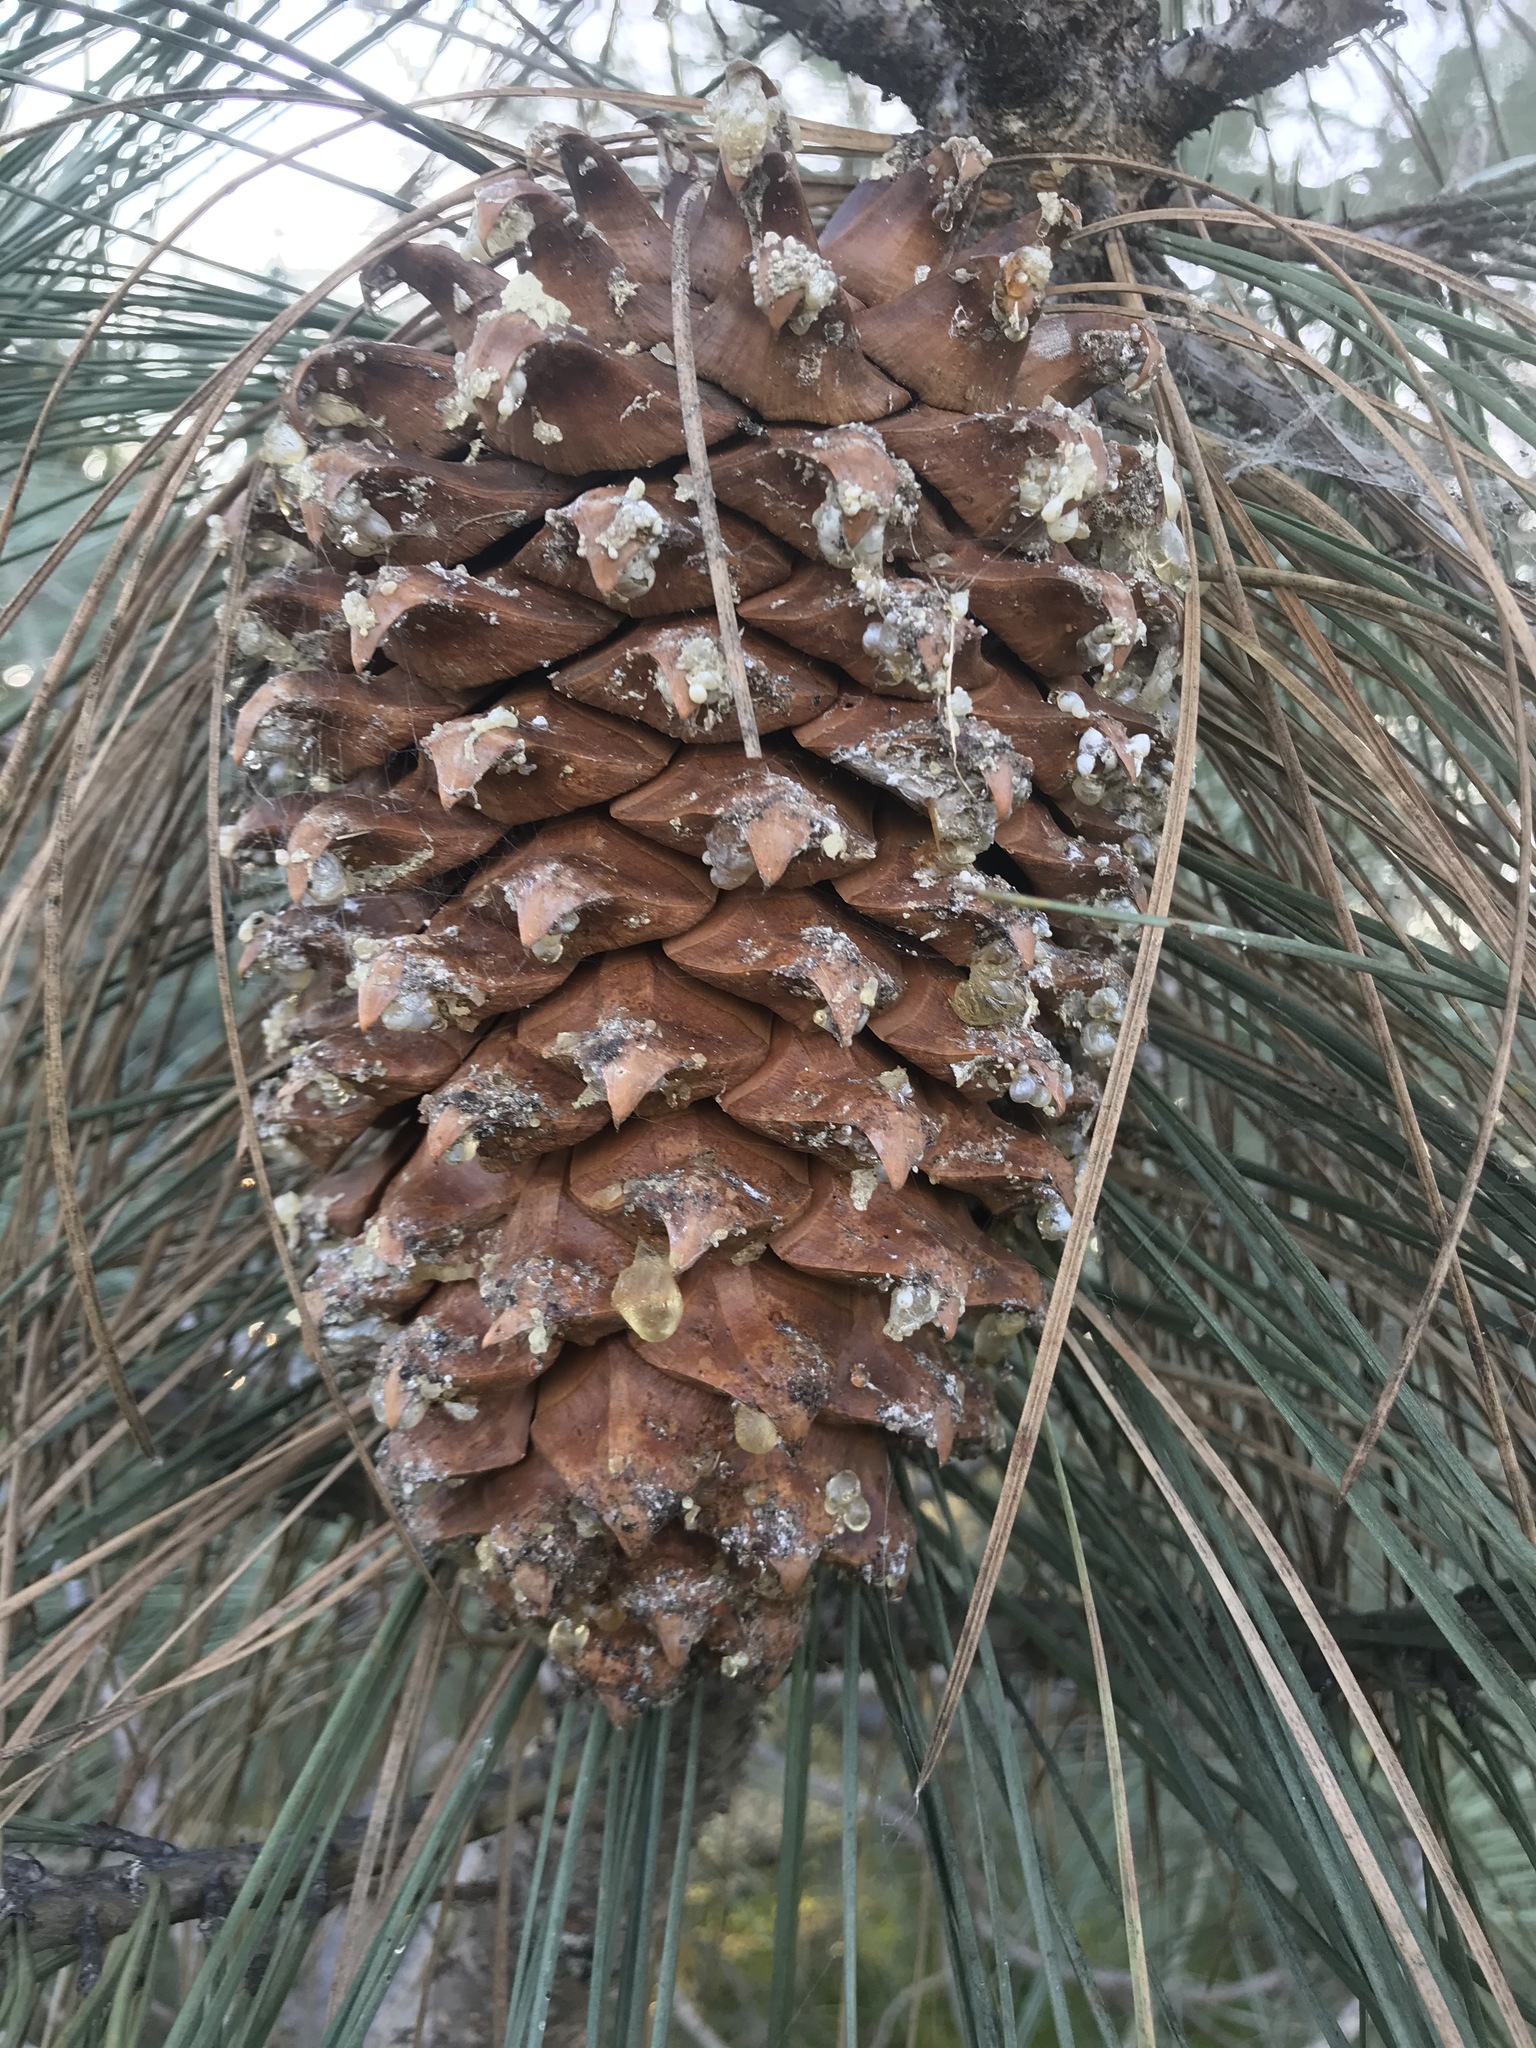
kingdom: Plantae
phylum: Tracheophyta
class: Pinopsida
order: Pinales
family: Pinaceae
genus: Pinus
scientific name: Pinus sabiniana
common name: Bull pine
